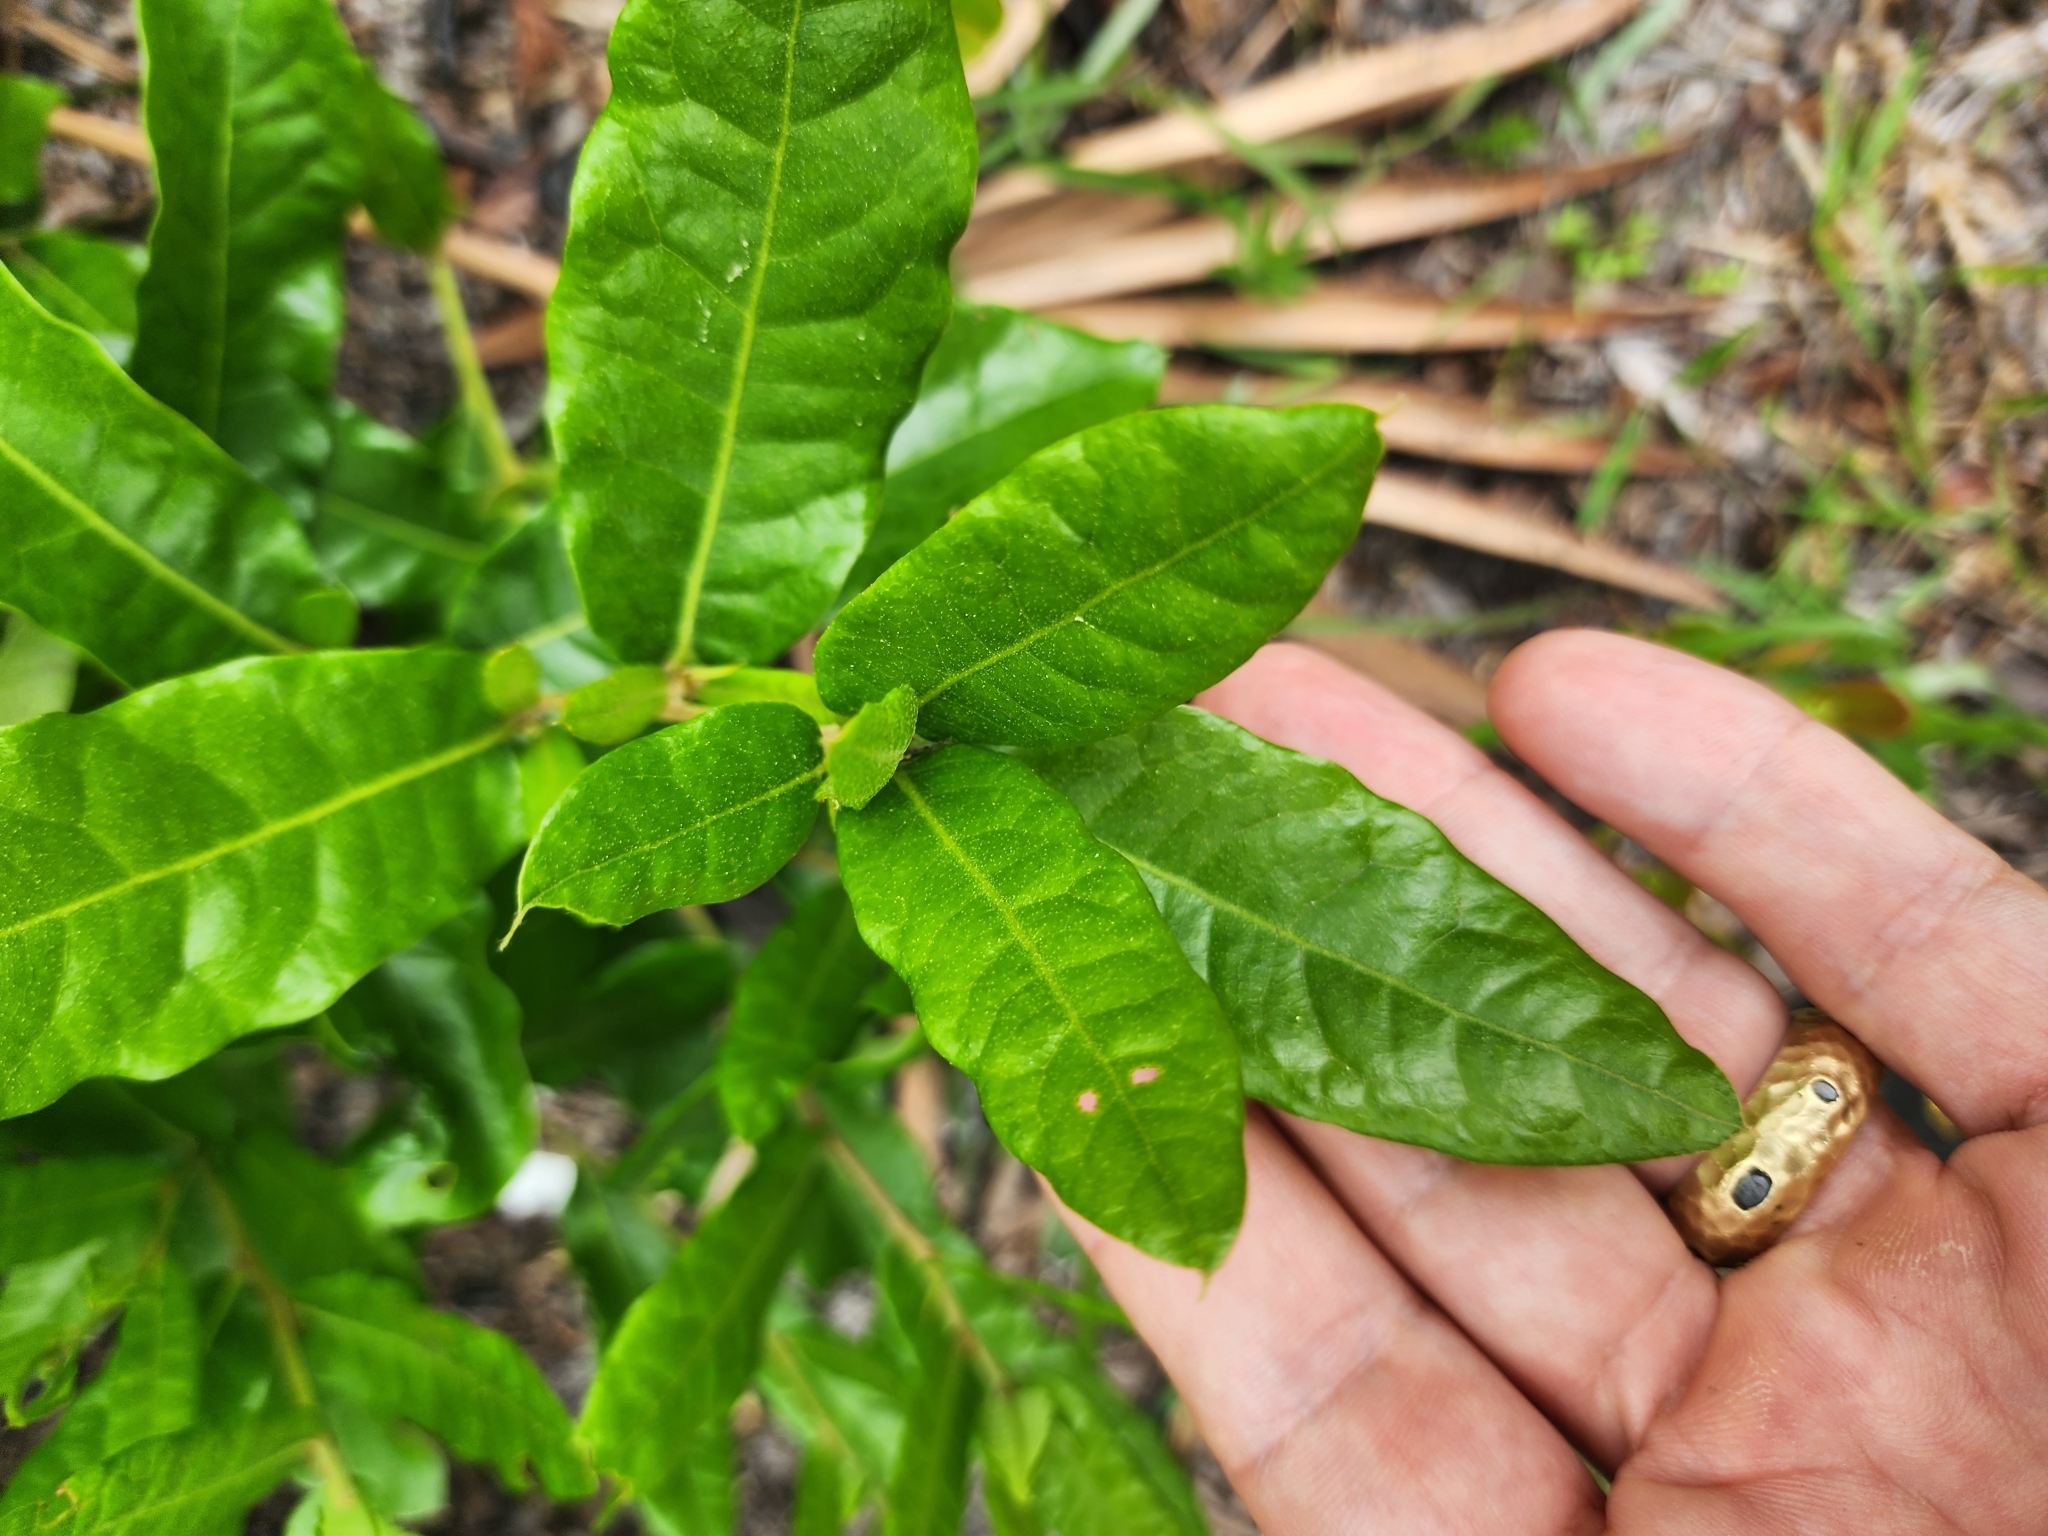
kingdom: Plantae
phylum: Tracheophyta
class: Magnoliopsida
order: Fagales
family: Fagaceae
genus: Quercus
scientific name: Quercus pumila
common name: Runner oak
